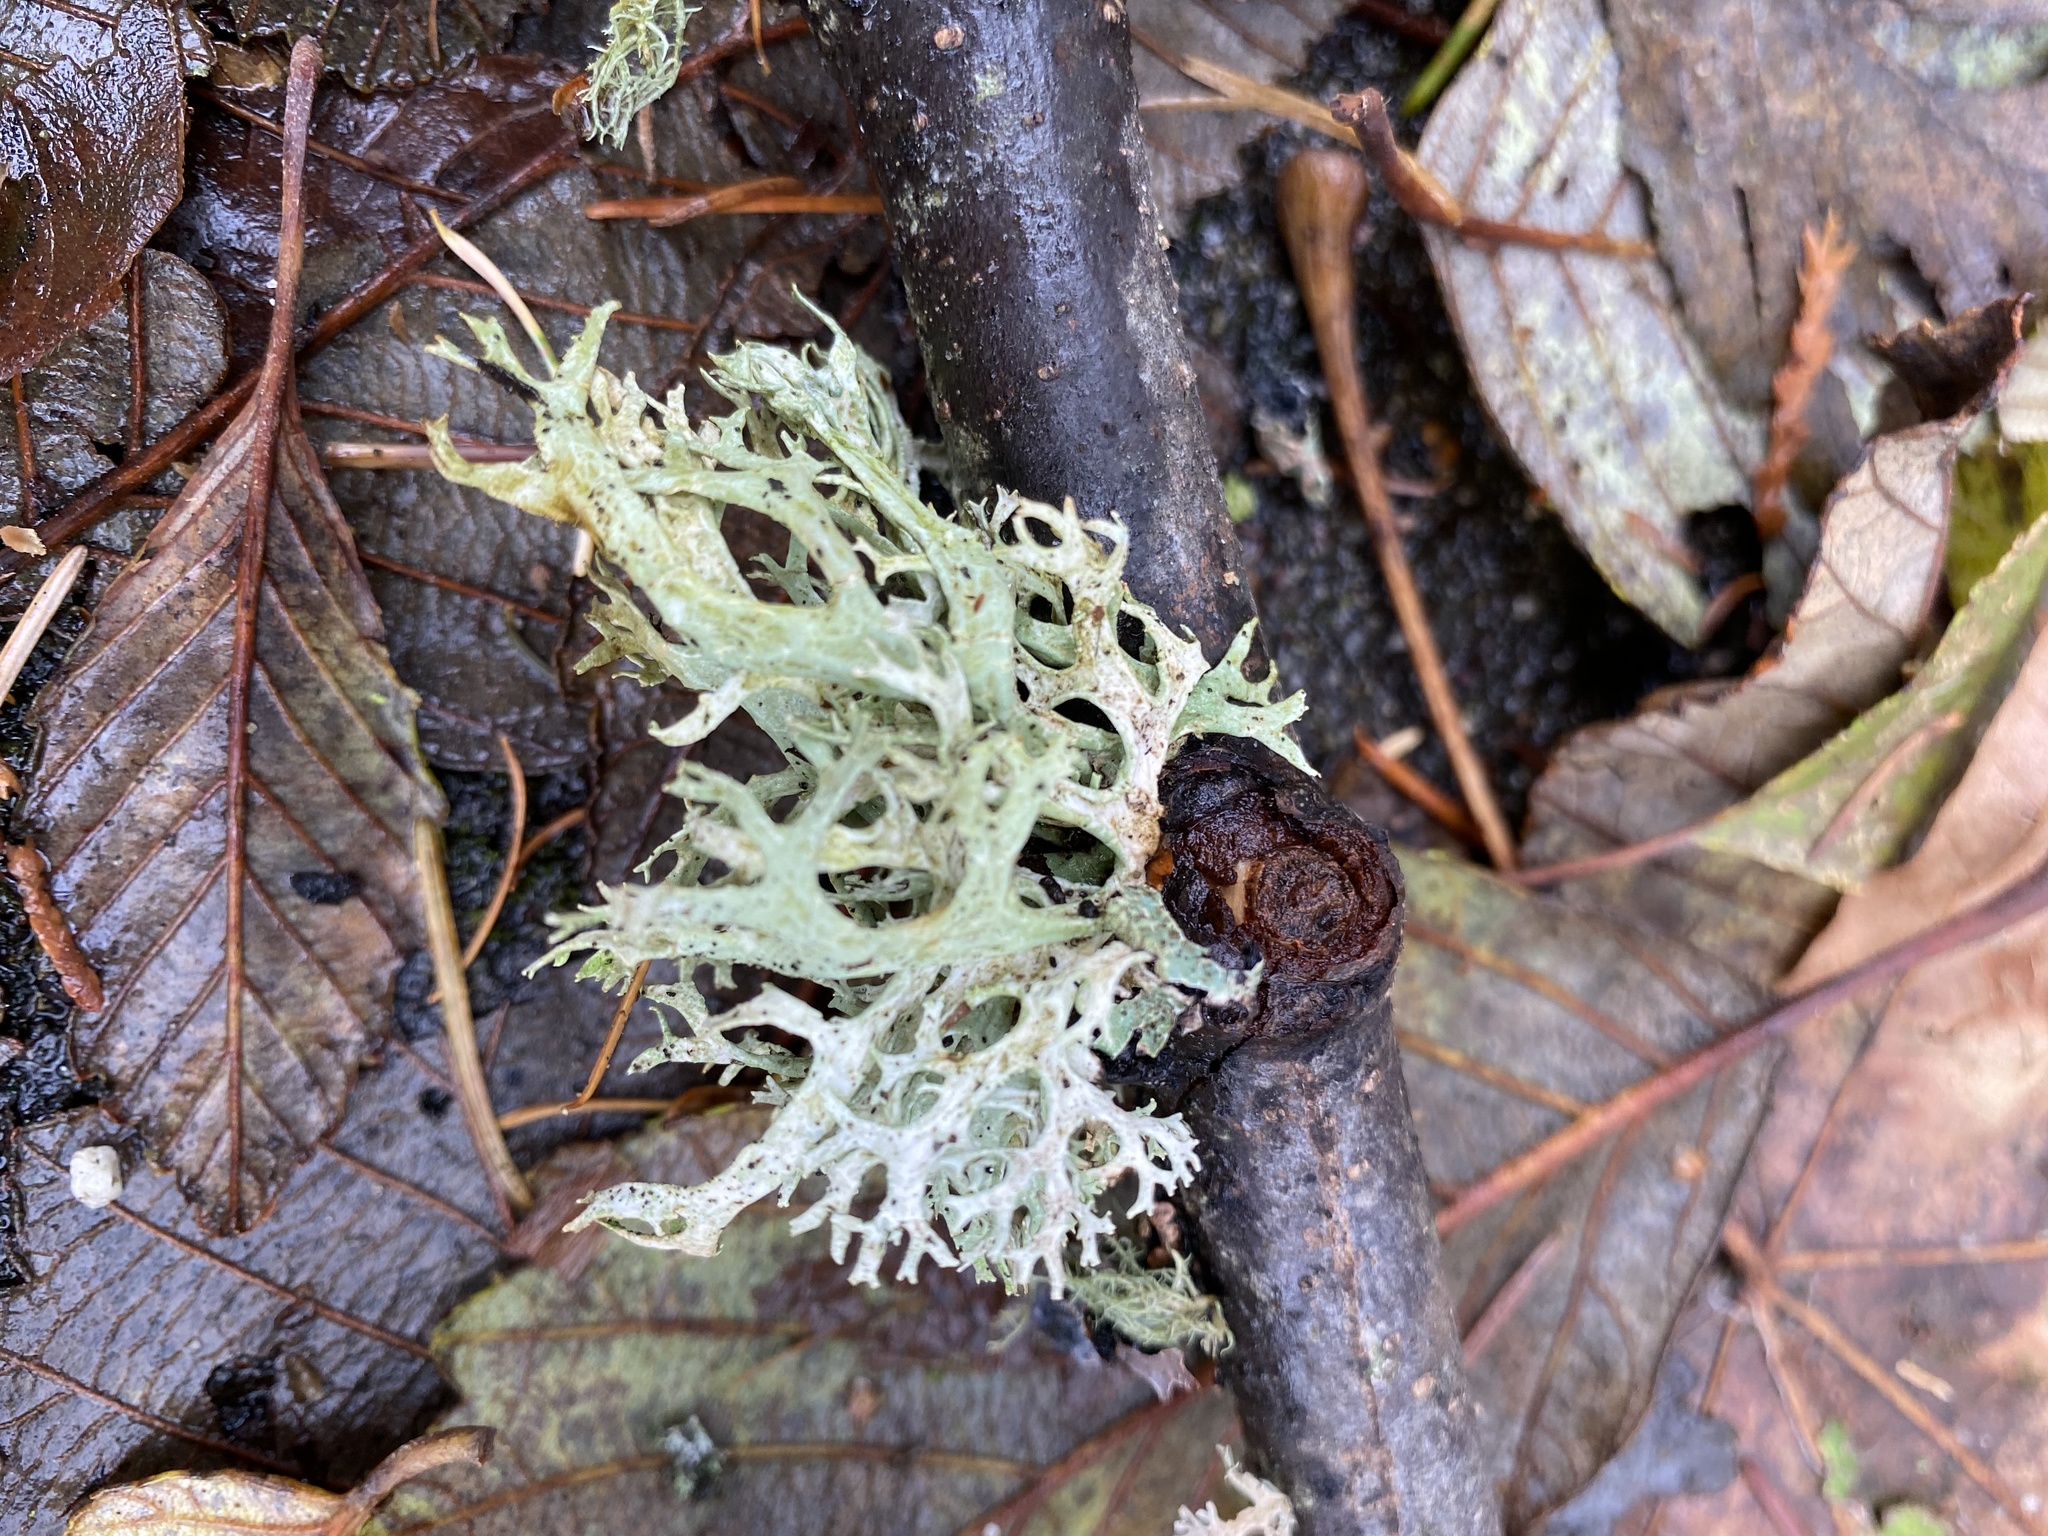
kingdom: Fungi
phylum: Ascomycota
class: Lecanoromycetes
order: Lecanorales
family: Parmeliaceae
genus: Evernia
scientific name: Evernia prunastri
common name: Oak moss
